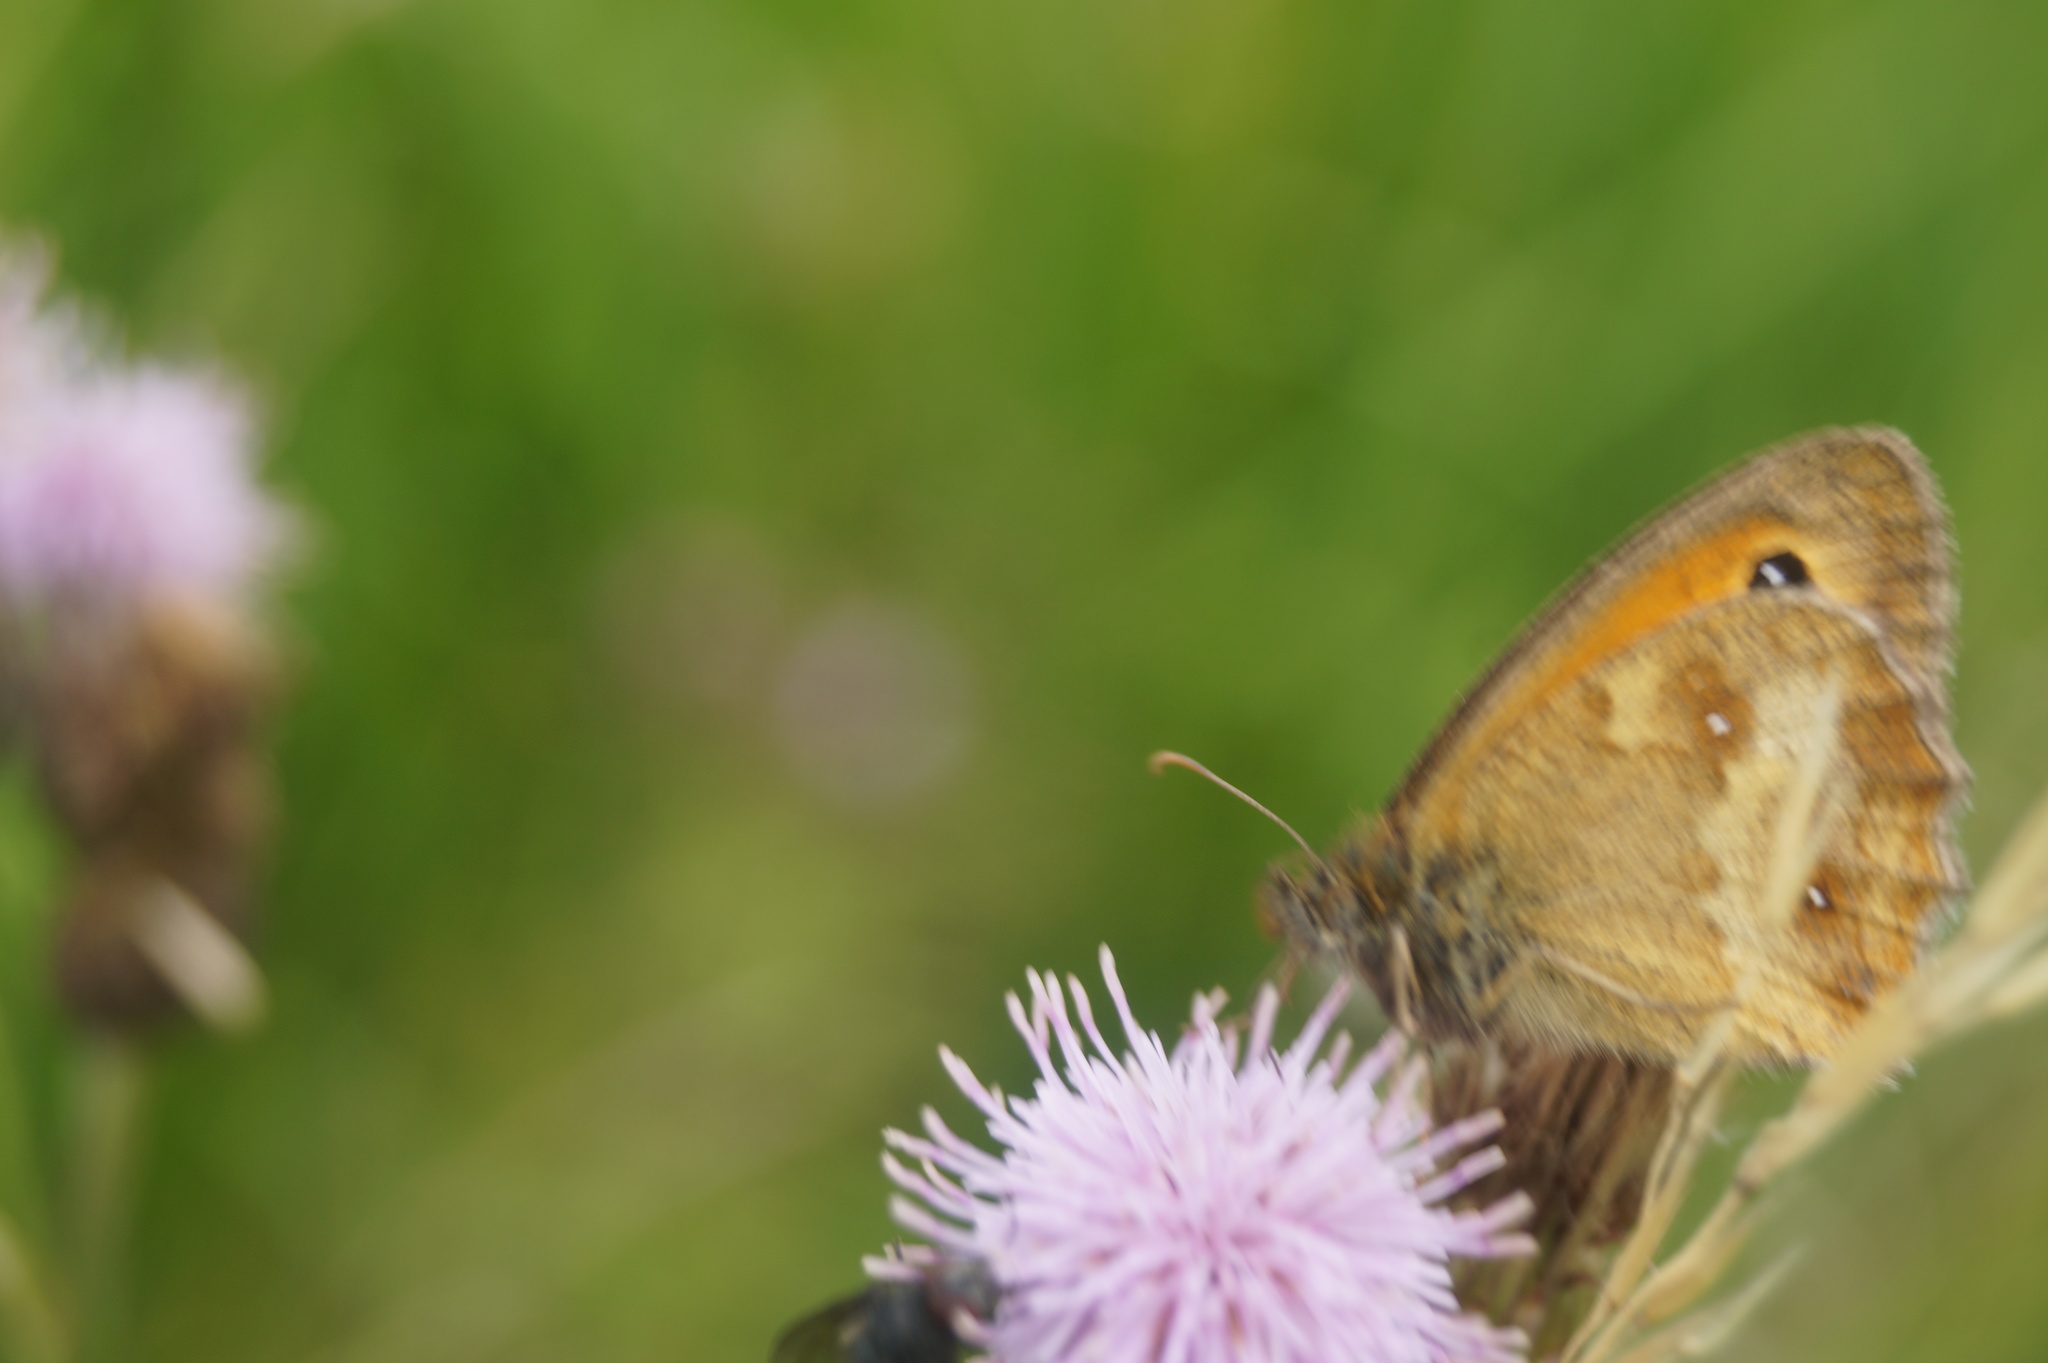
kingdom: Animalia
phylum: Arthropoda
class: Insecta
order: Lepidoptera
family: Nymphalidae
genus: Pyronia
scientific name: Pyronia tithonus
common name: Gatekeeper
